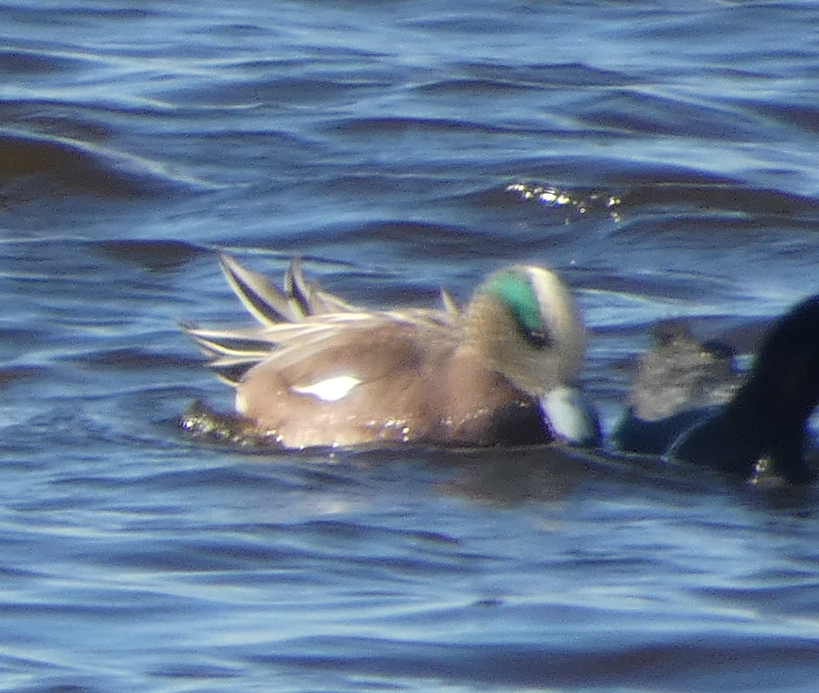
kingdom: Animalia
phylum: Chordata
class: Aves
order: Anseriformes
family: Anatidae
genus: Mareca
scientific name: Mareca americana
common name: American wigeon
